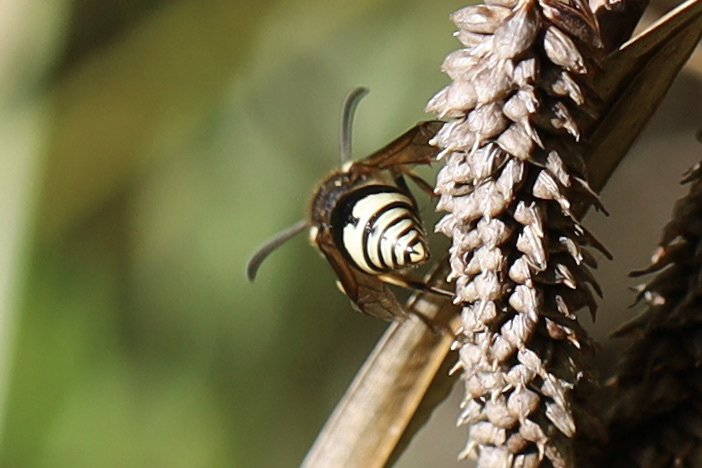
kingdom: Animalia
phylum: Arthropoda
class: Insecta
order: Hymenoptera
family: Vespidae
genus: Eumenes
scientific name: Eumenes crucifera
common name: Cross potter wasp
